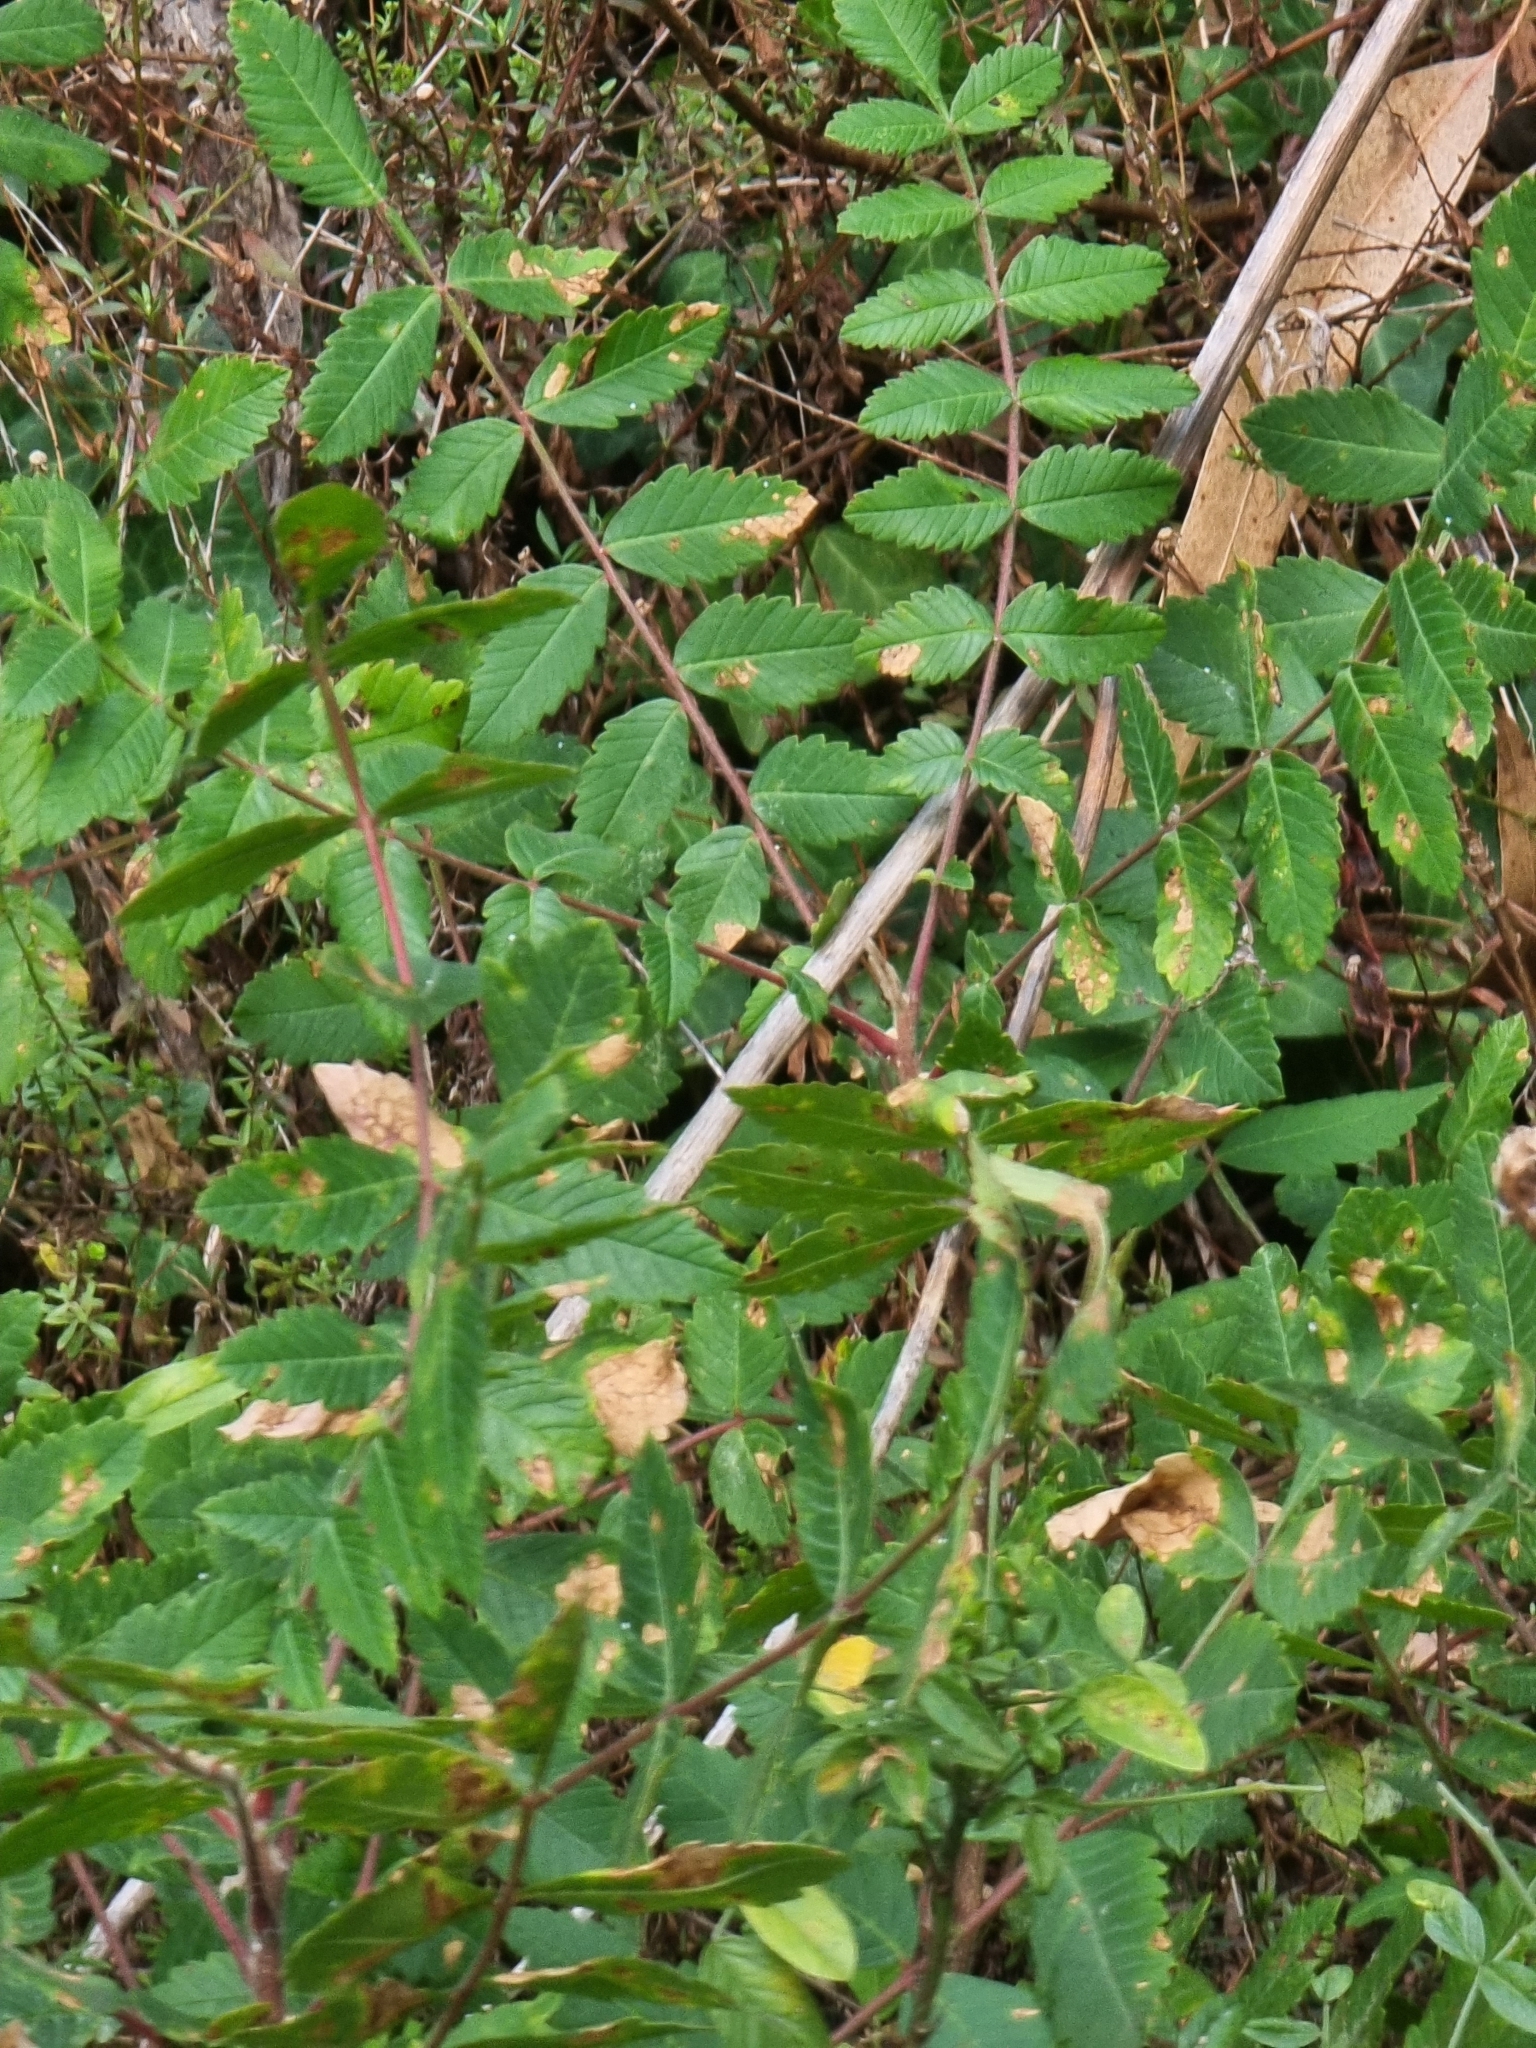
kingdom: Plantae
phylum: Tracheophyta
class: Magnoliopsida
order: Sapindales
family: Anacardiaceae
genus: Rhus
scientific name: Rhus coriaria
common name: Tanner's sumach
